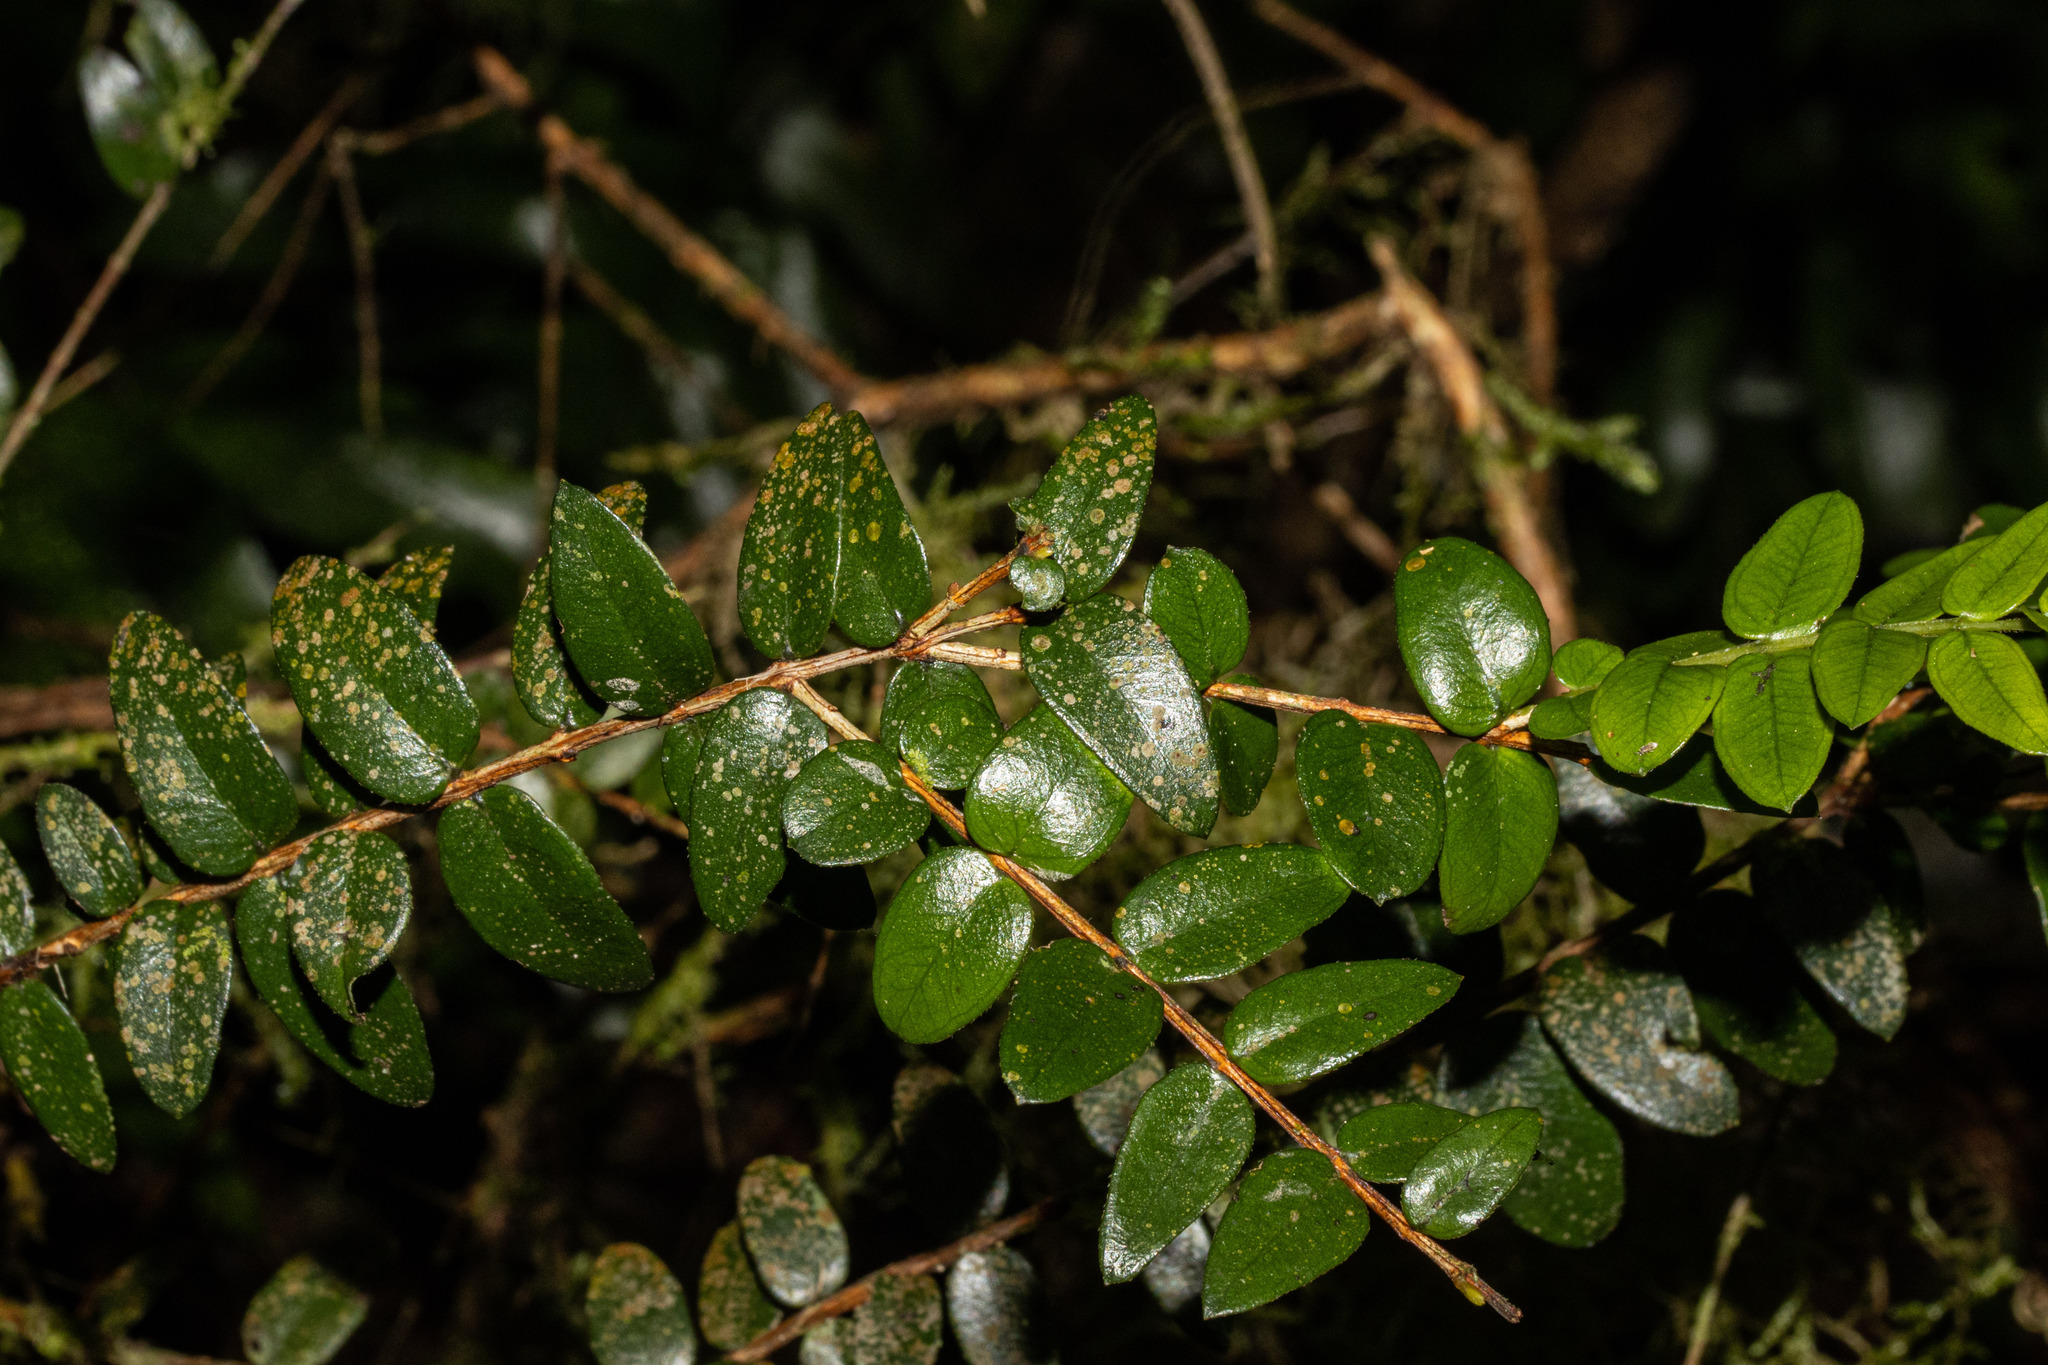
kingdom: Plantae
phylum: Tracheophyta
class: Magnoliopsida
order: Myrtales
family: Myrtaceae
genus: Metrosideros
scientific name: Metrosideros diffusa
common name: Small ratavine
